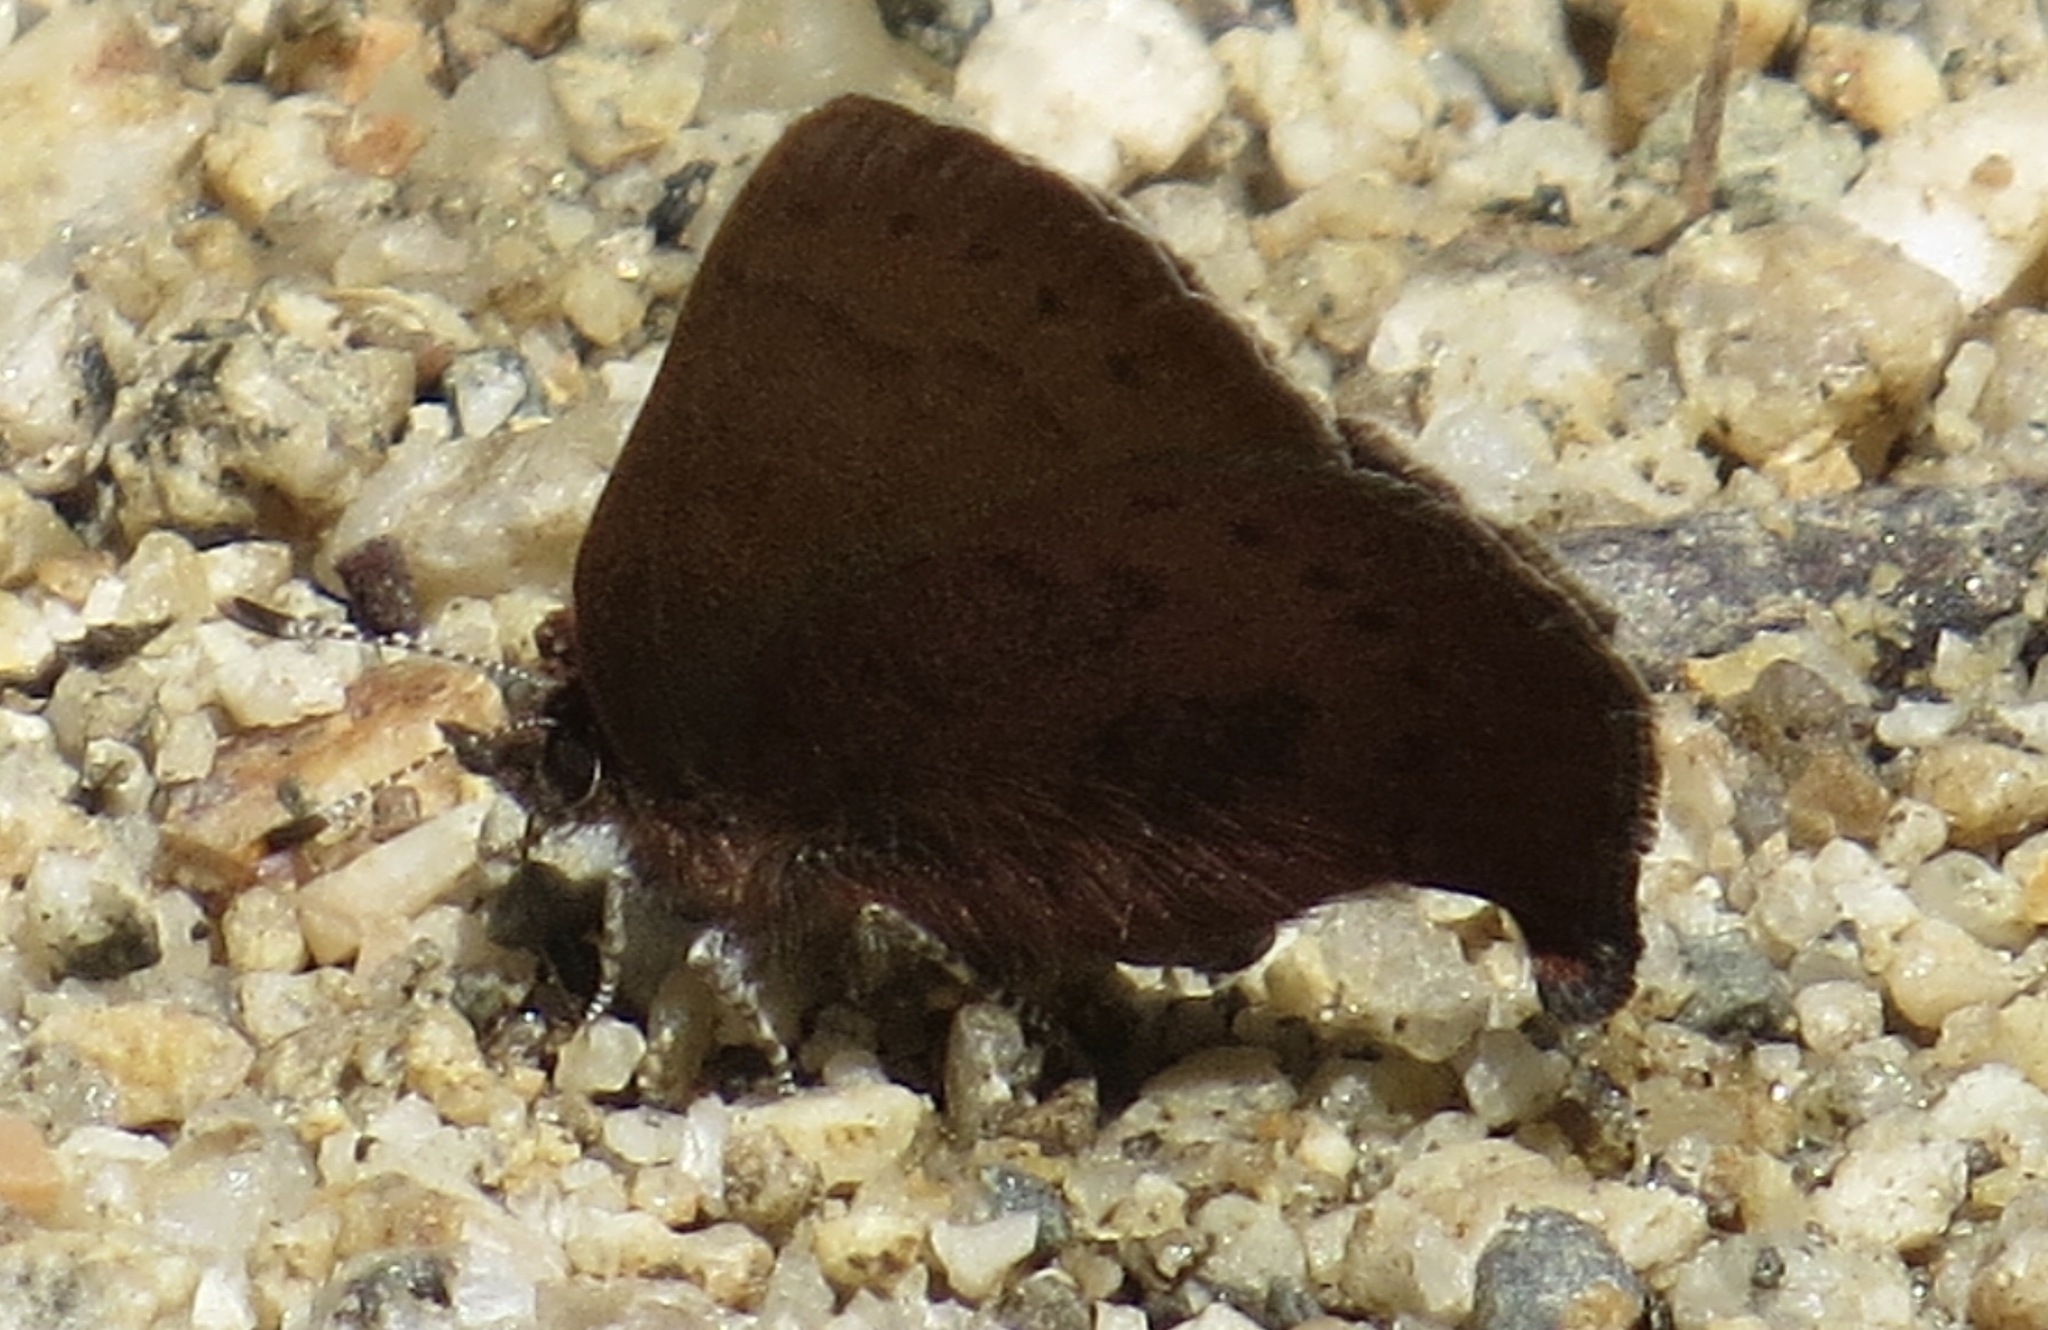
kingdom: Animalia
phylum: Arthropoda
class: Insecta
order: Lepidoptera
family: Lycaenidae
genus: Incisalia
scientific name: Incisalia irioides
